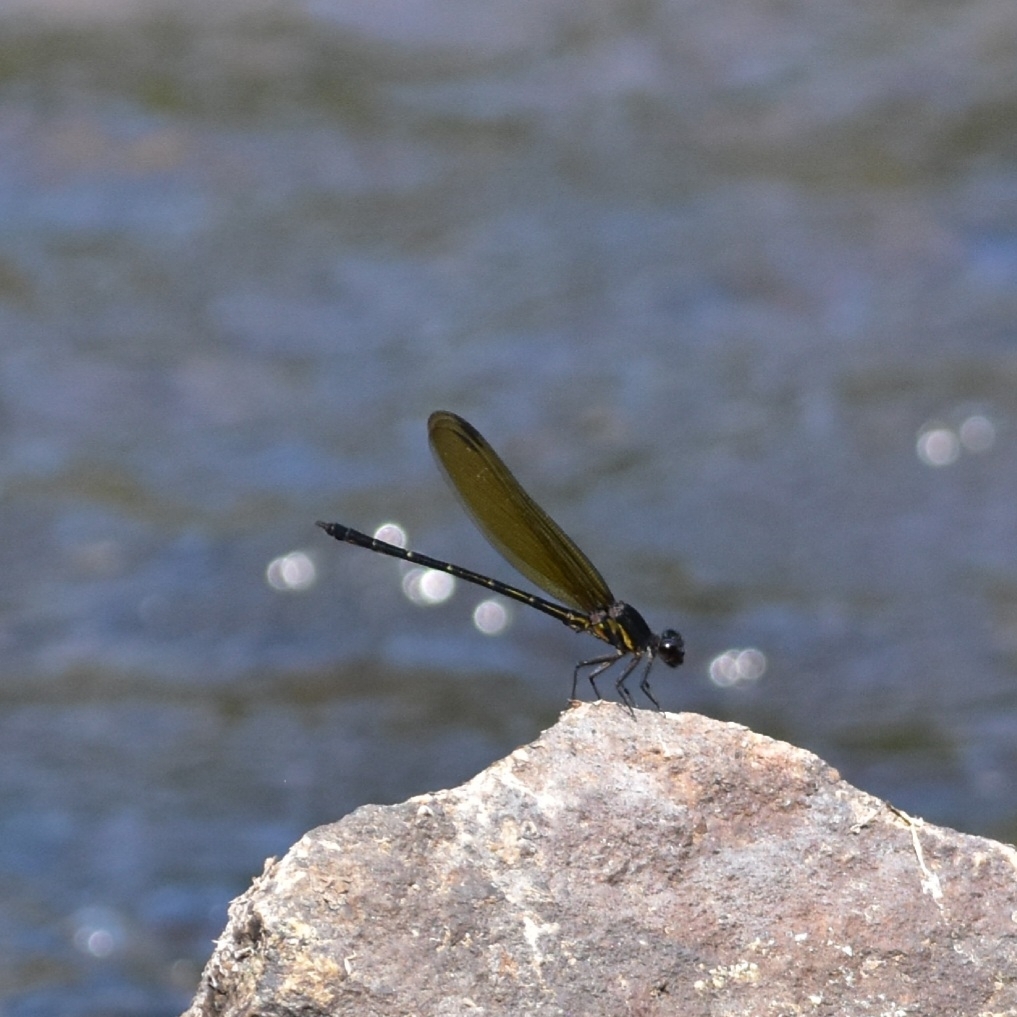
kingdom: Animalia
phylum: Arthropoda
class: Insecta
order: Odonata
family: Euphaeidae
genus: Dysphaea
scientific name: Dysphaea ethela
